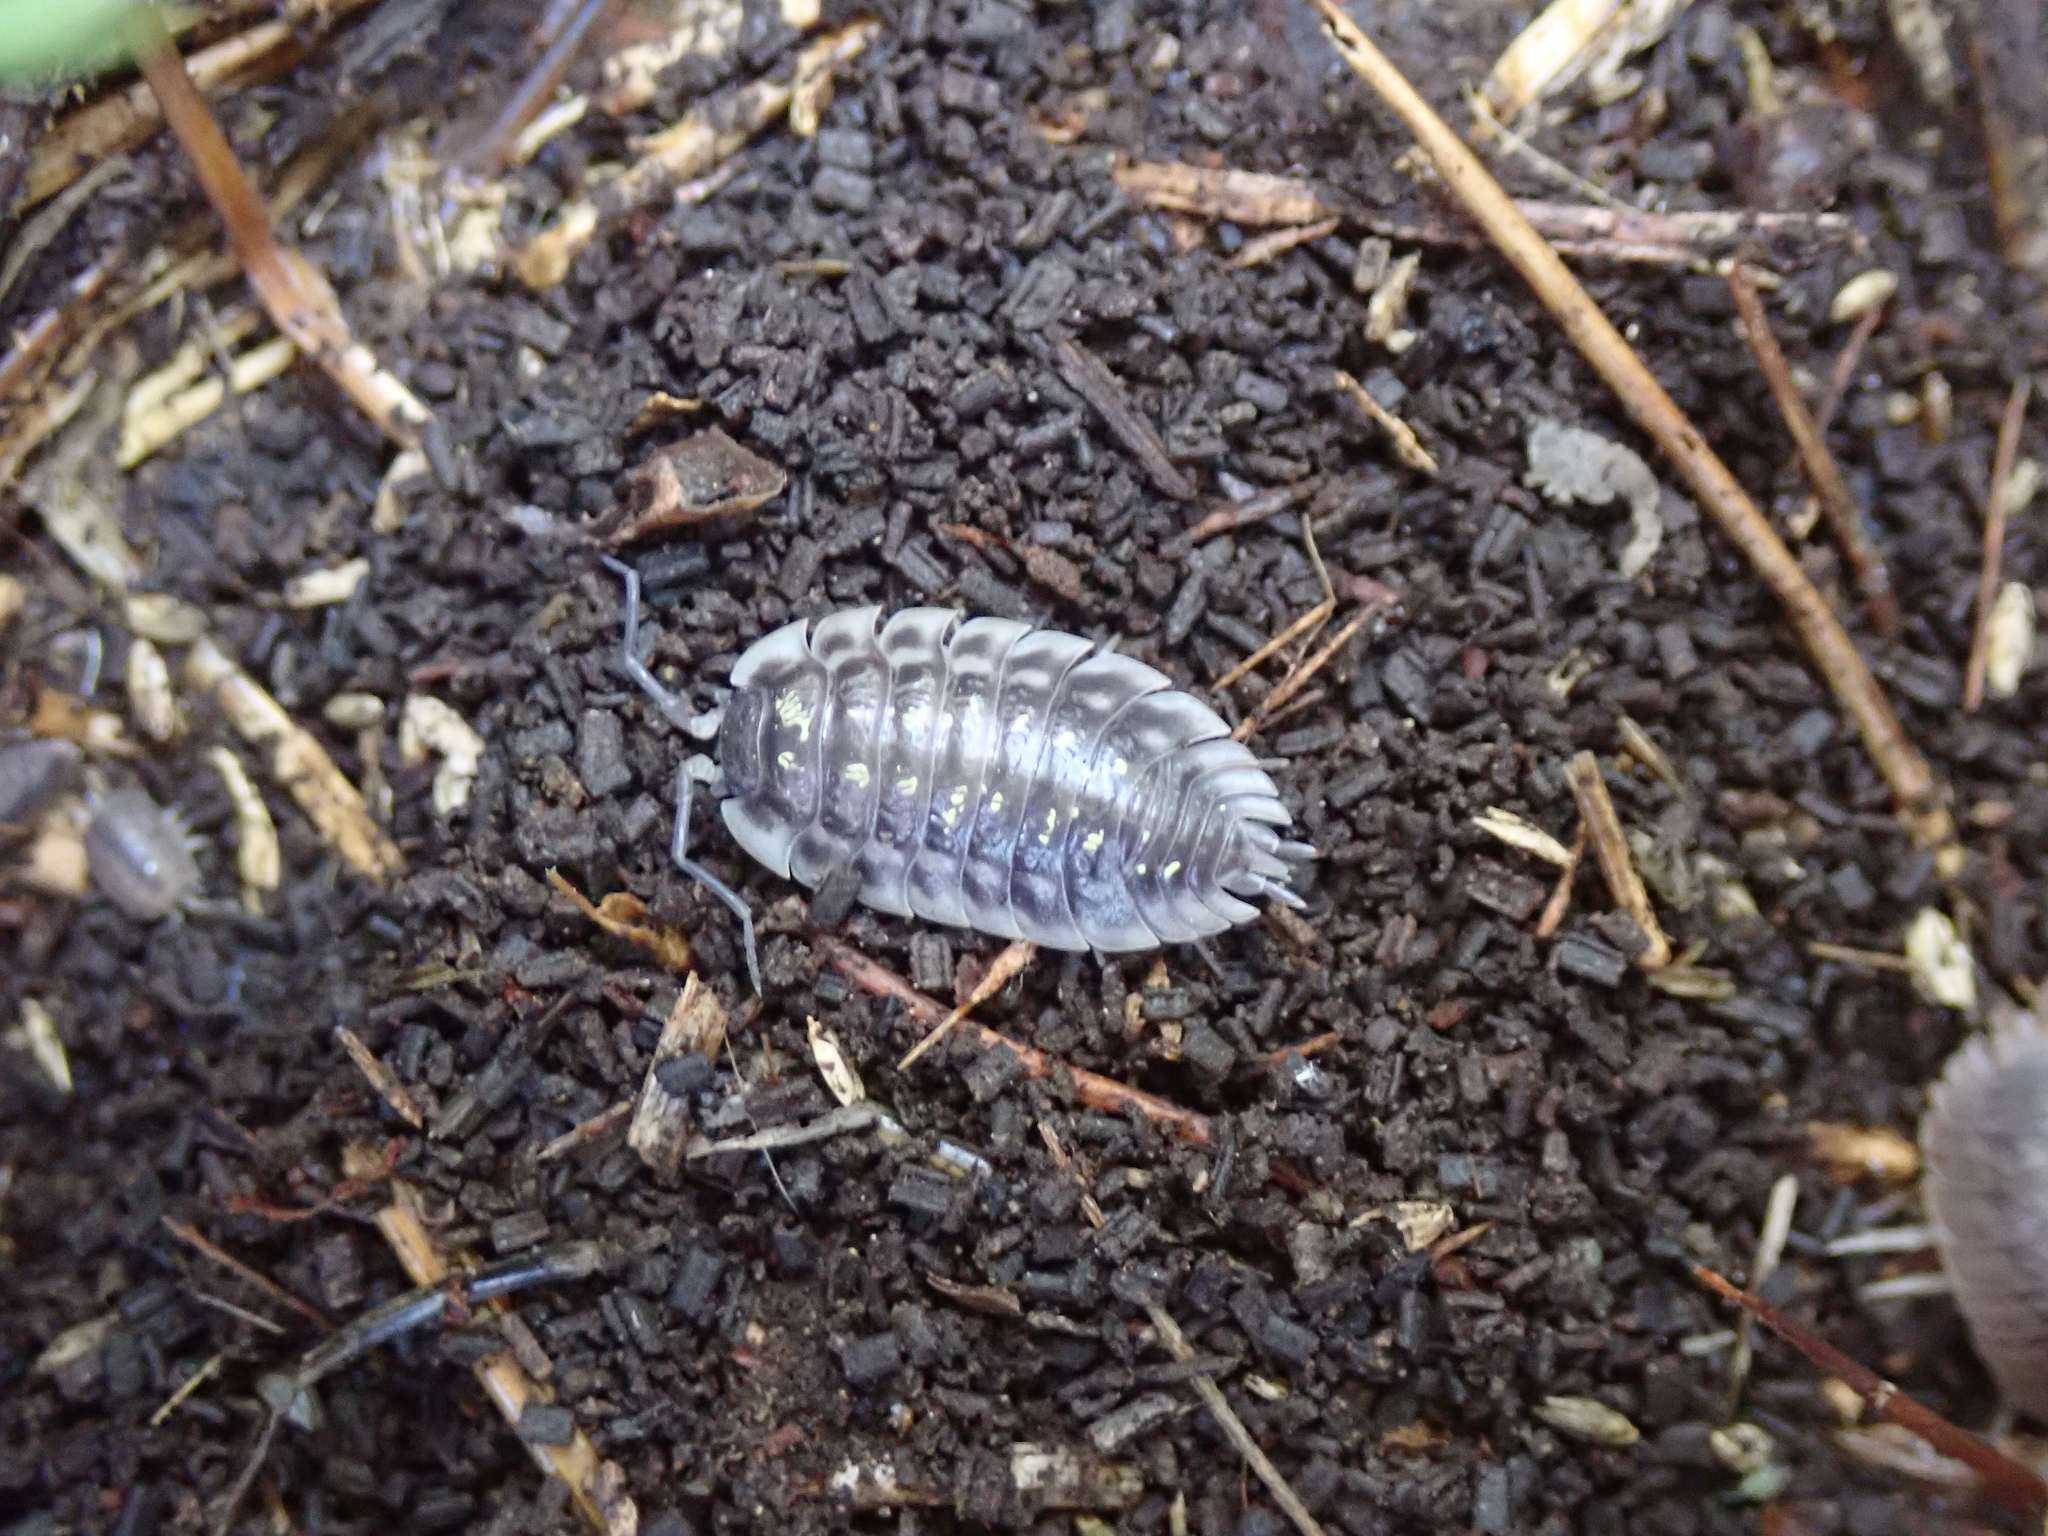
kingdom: Animalia
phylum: Arthropoda
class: Malacostraca
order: Isopoda
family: Oniscidae
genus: Oniscus
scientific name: Oniscus asellus
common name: Common shiny woodlouse
